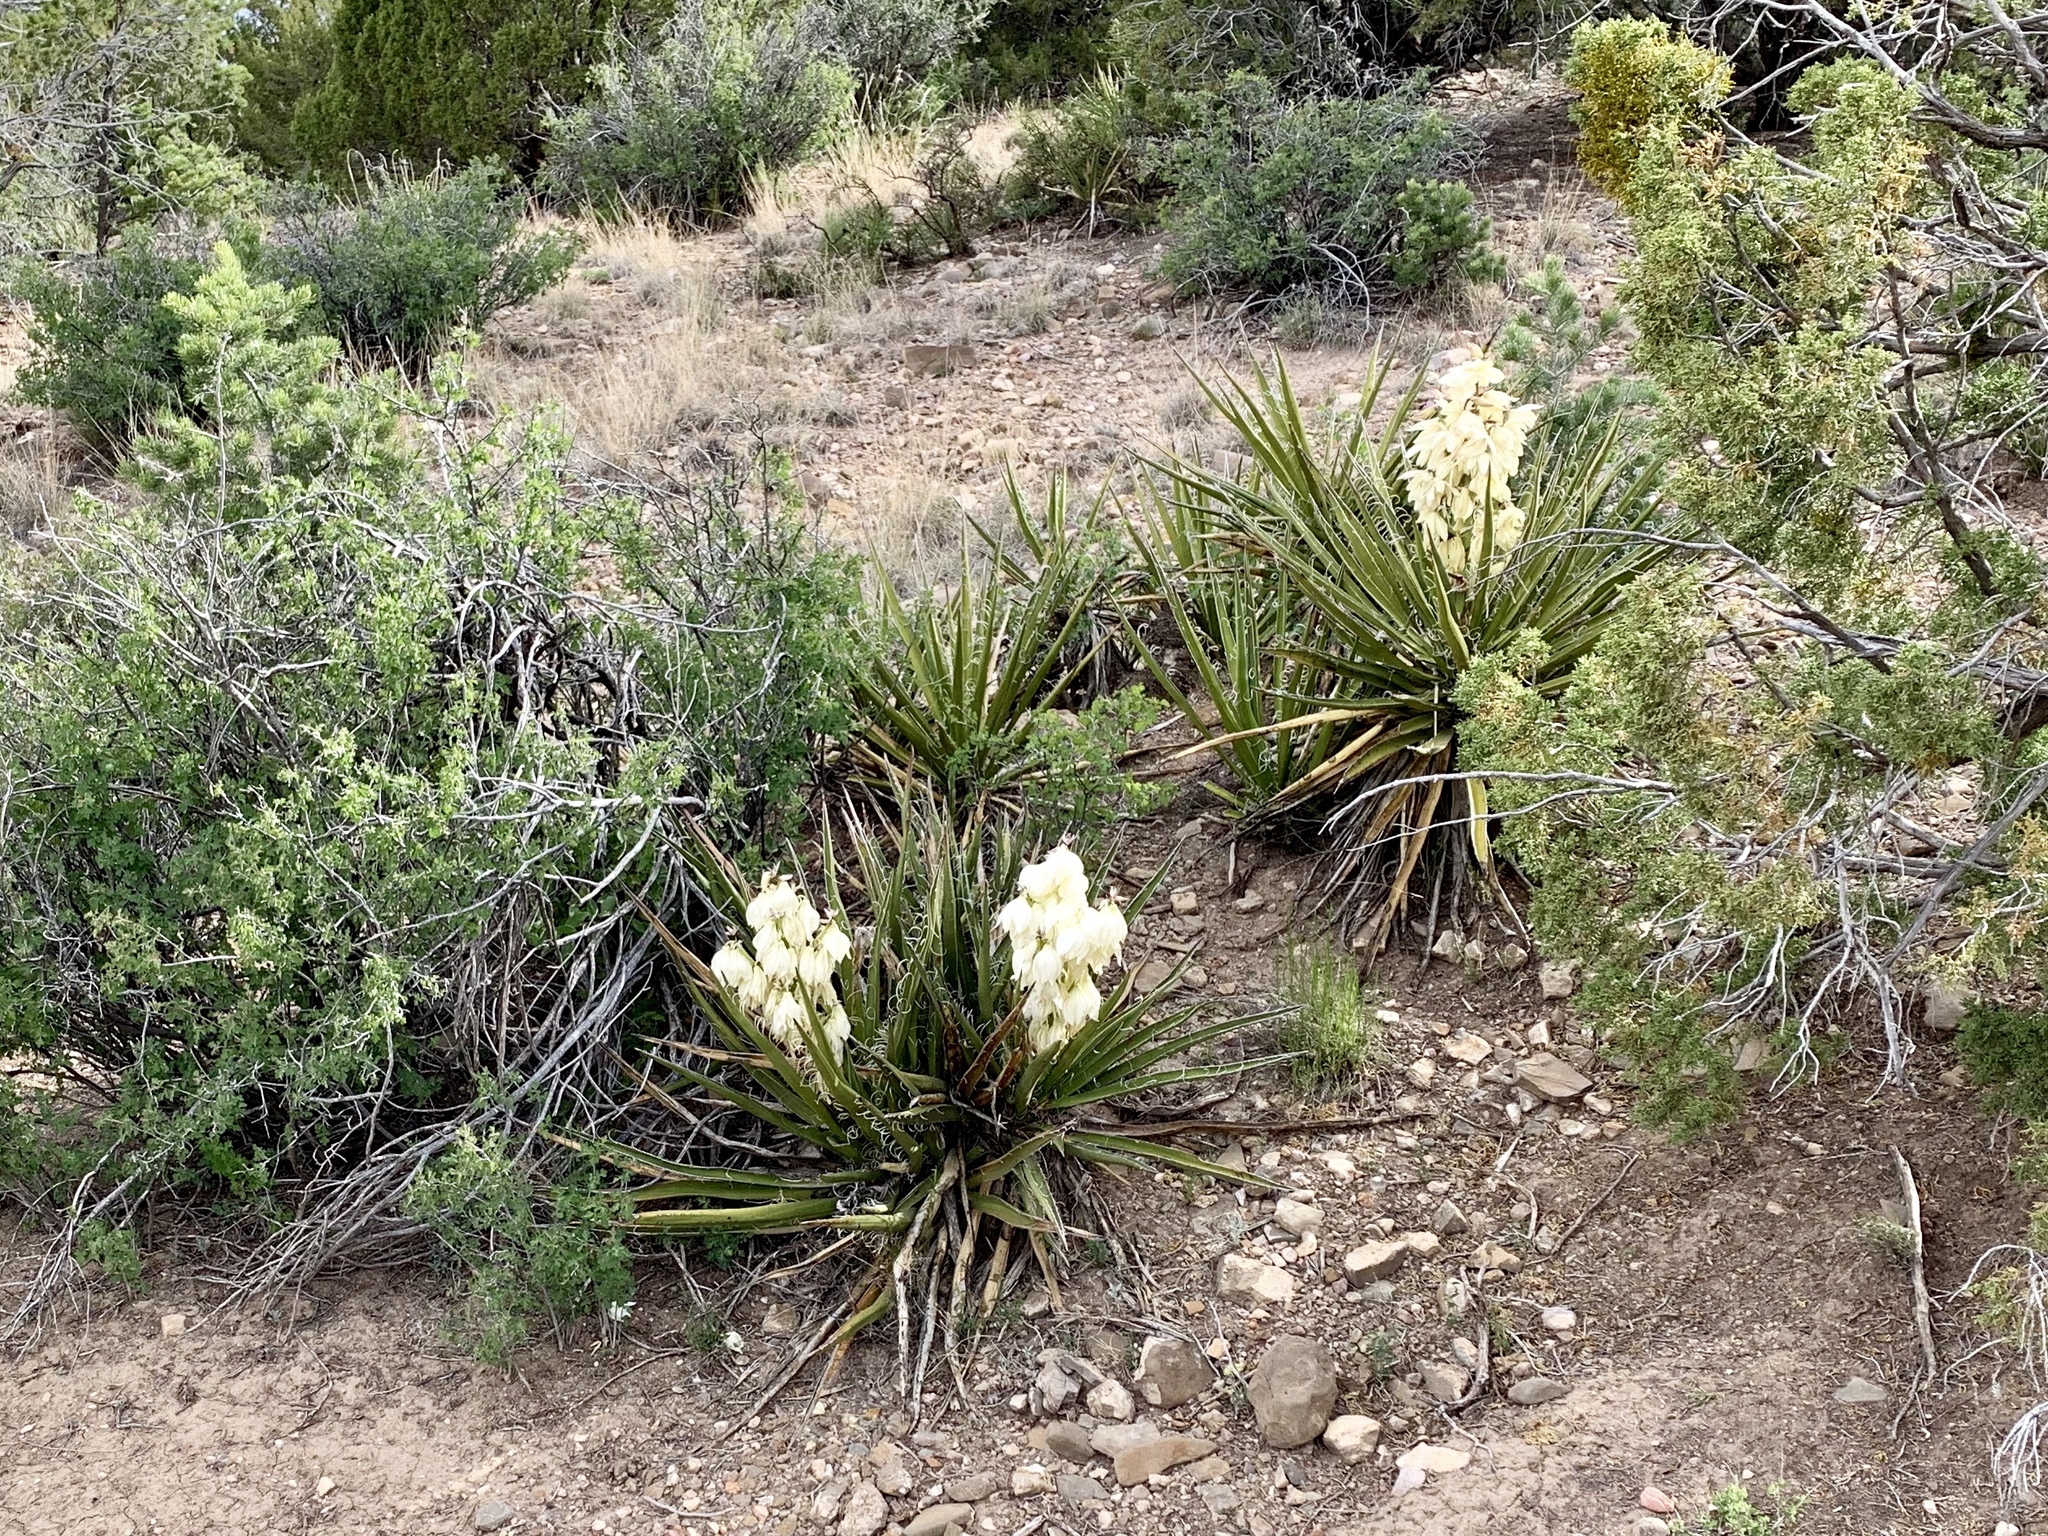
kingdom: Plantae
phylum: Tracheophyta
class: Liliopsida
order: Asparagales
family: Asparagaceae
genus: Yucca
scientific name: Yucca baccata
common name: Banana yucca
